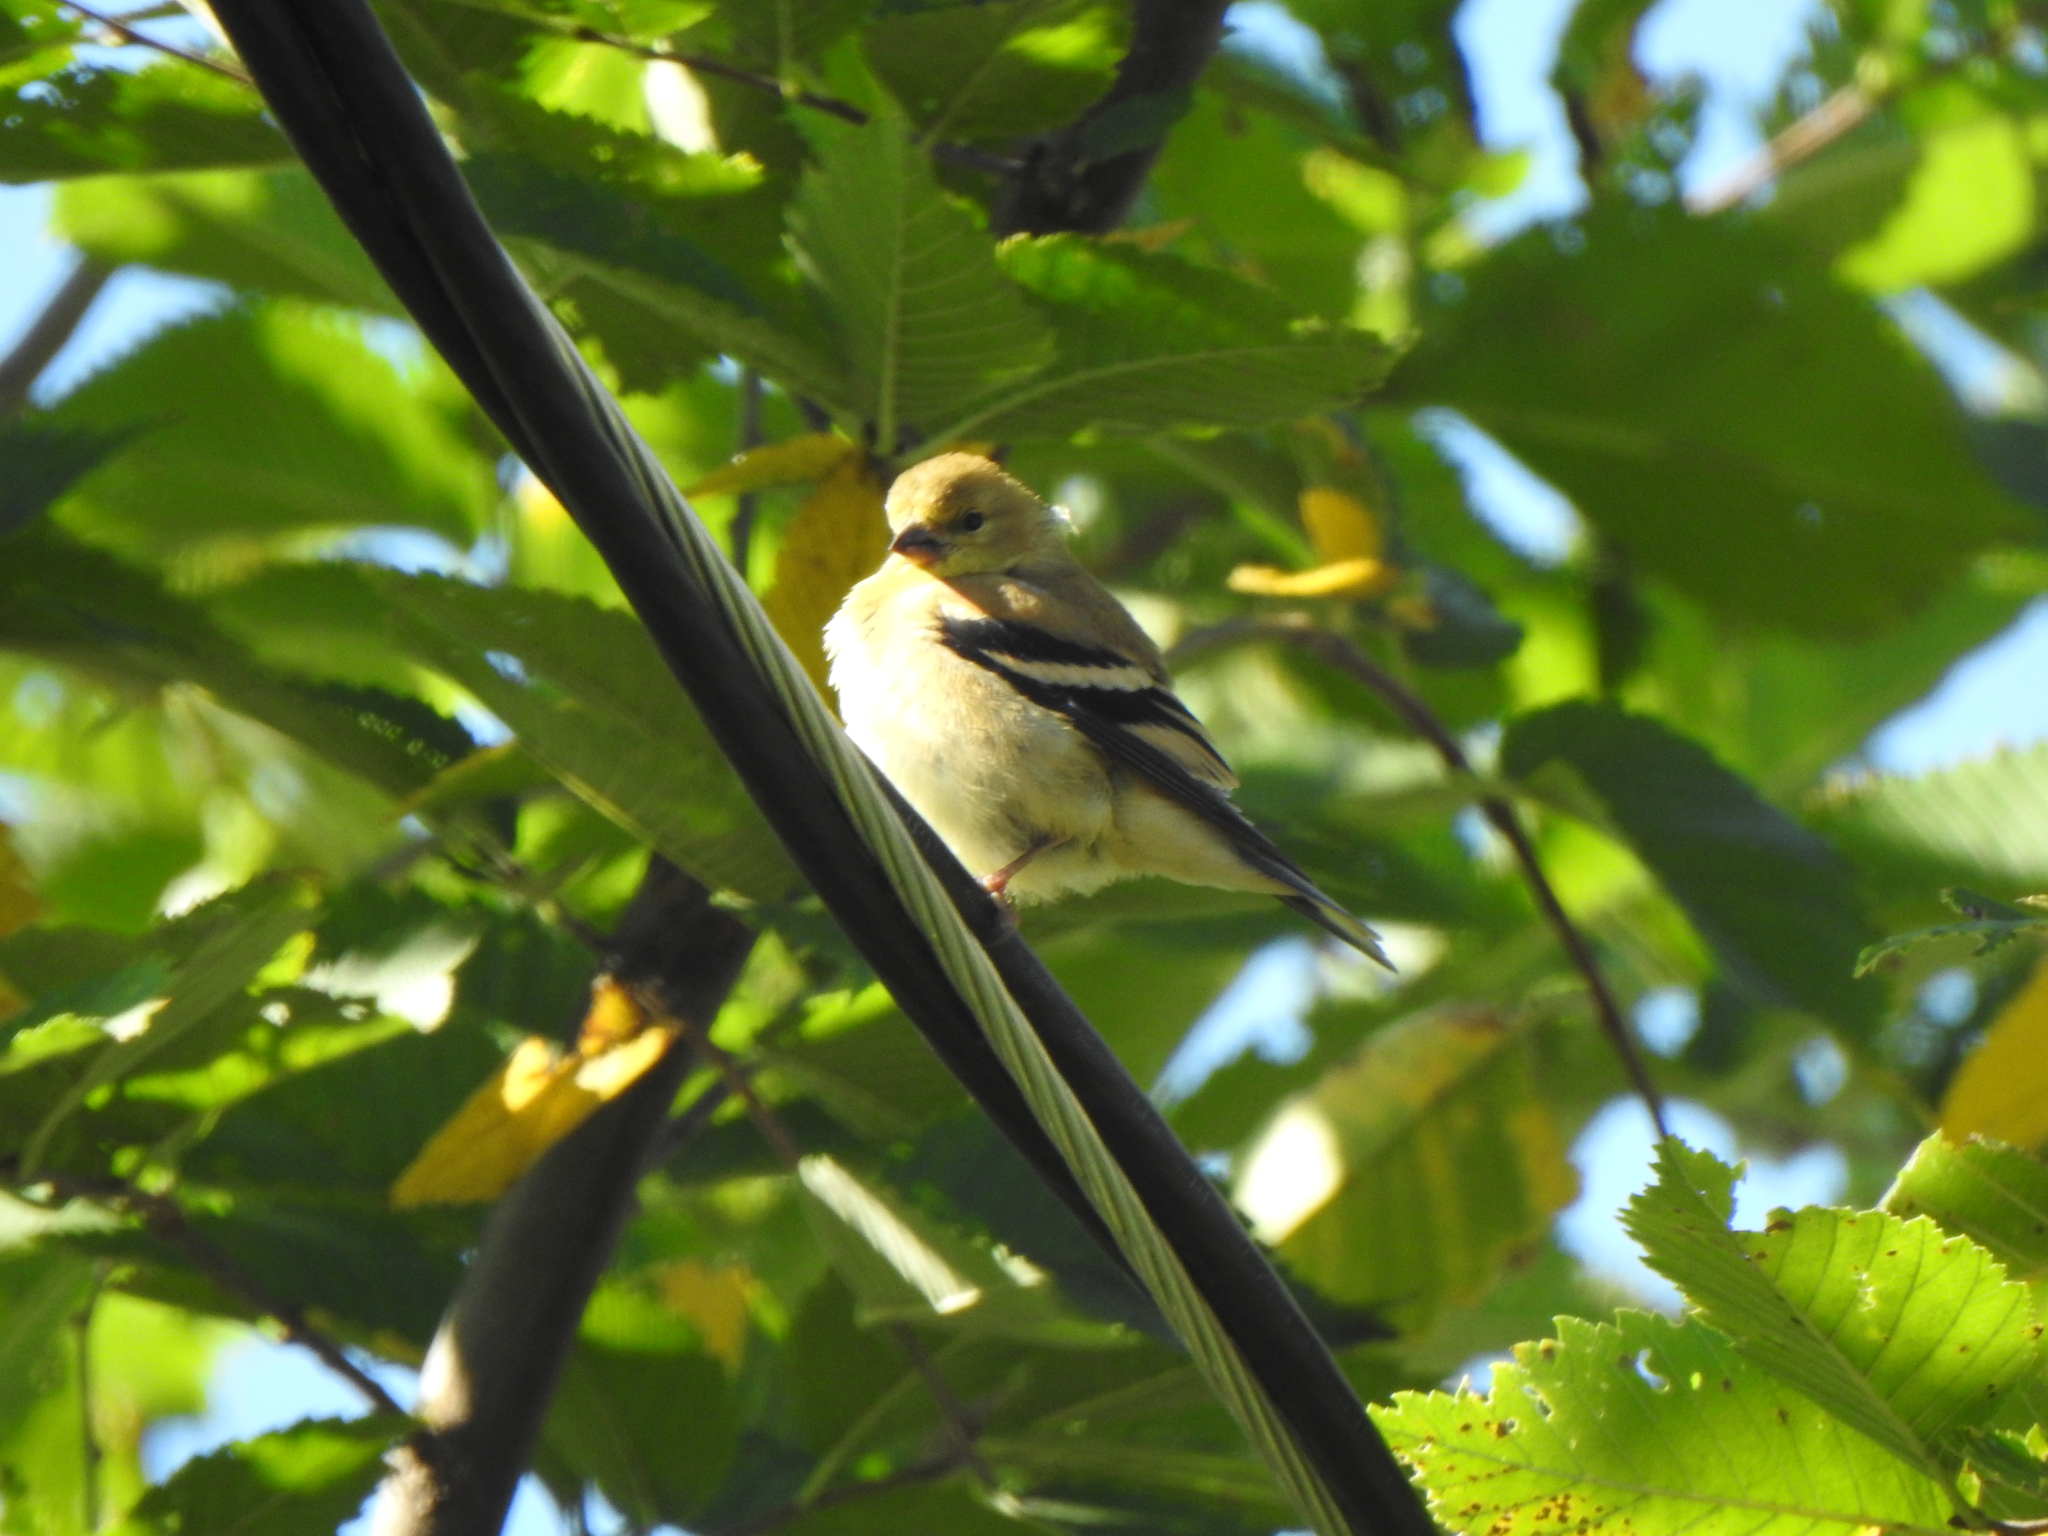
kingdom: Animalia
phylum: Chordata
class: Aves
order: Passeriformes
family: Fringillidae
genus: Spinus
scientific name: Spinus tristis
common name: American goldfinch
